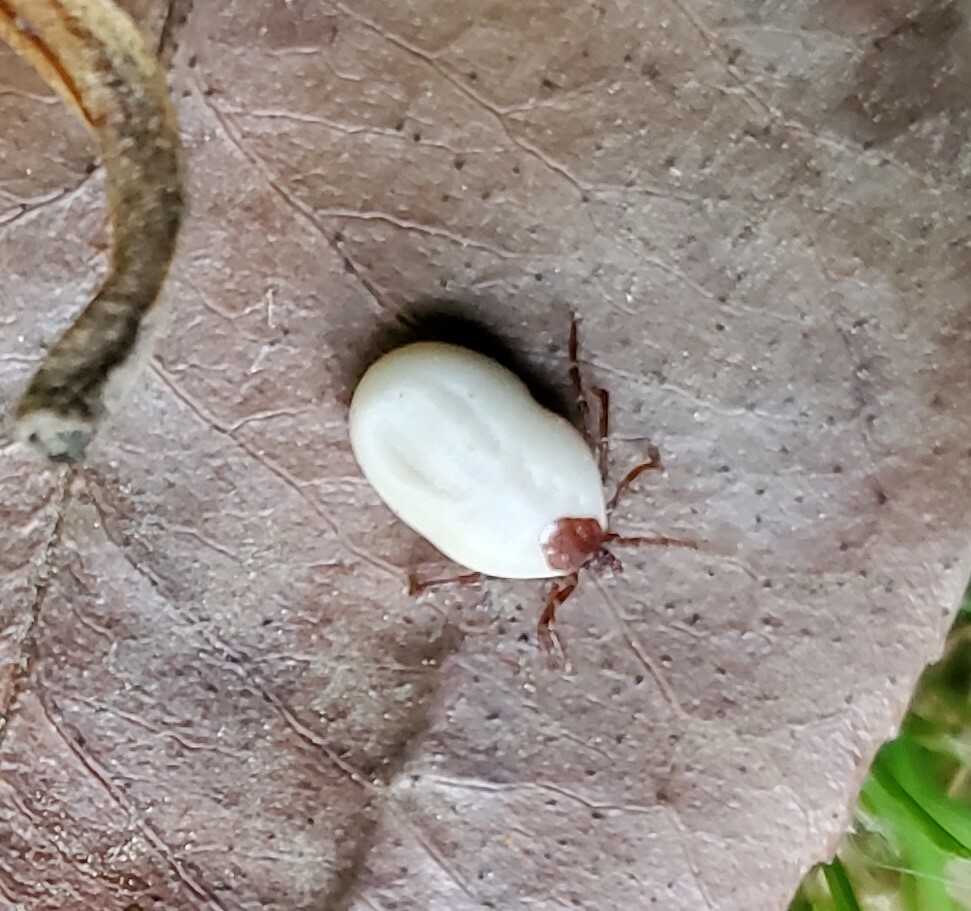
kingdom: Animalia
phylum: Arthropoda
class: Arachnida
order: Ixodida
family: Ixodidae
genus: Ixodes
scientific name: Ixodes hexagonus
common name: Hedgehog tick
